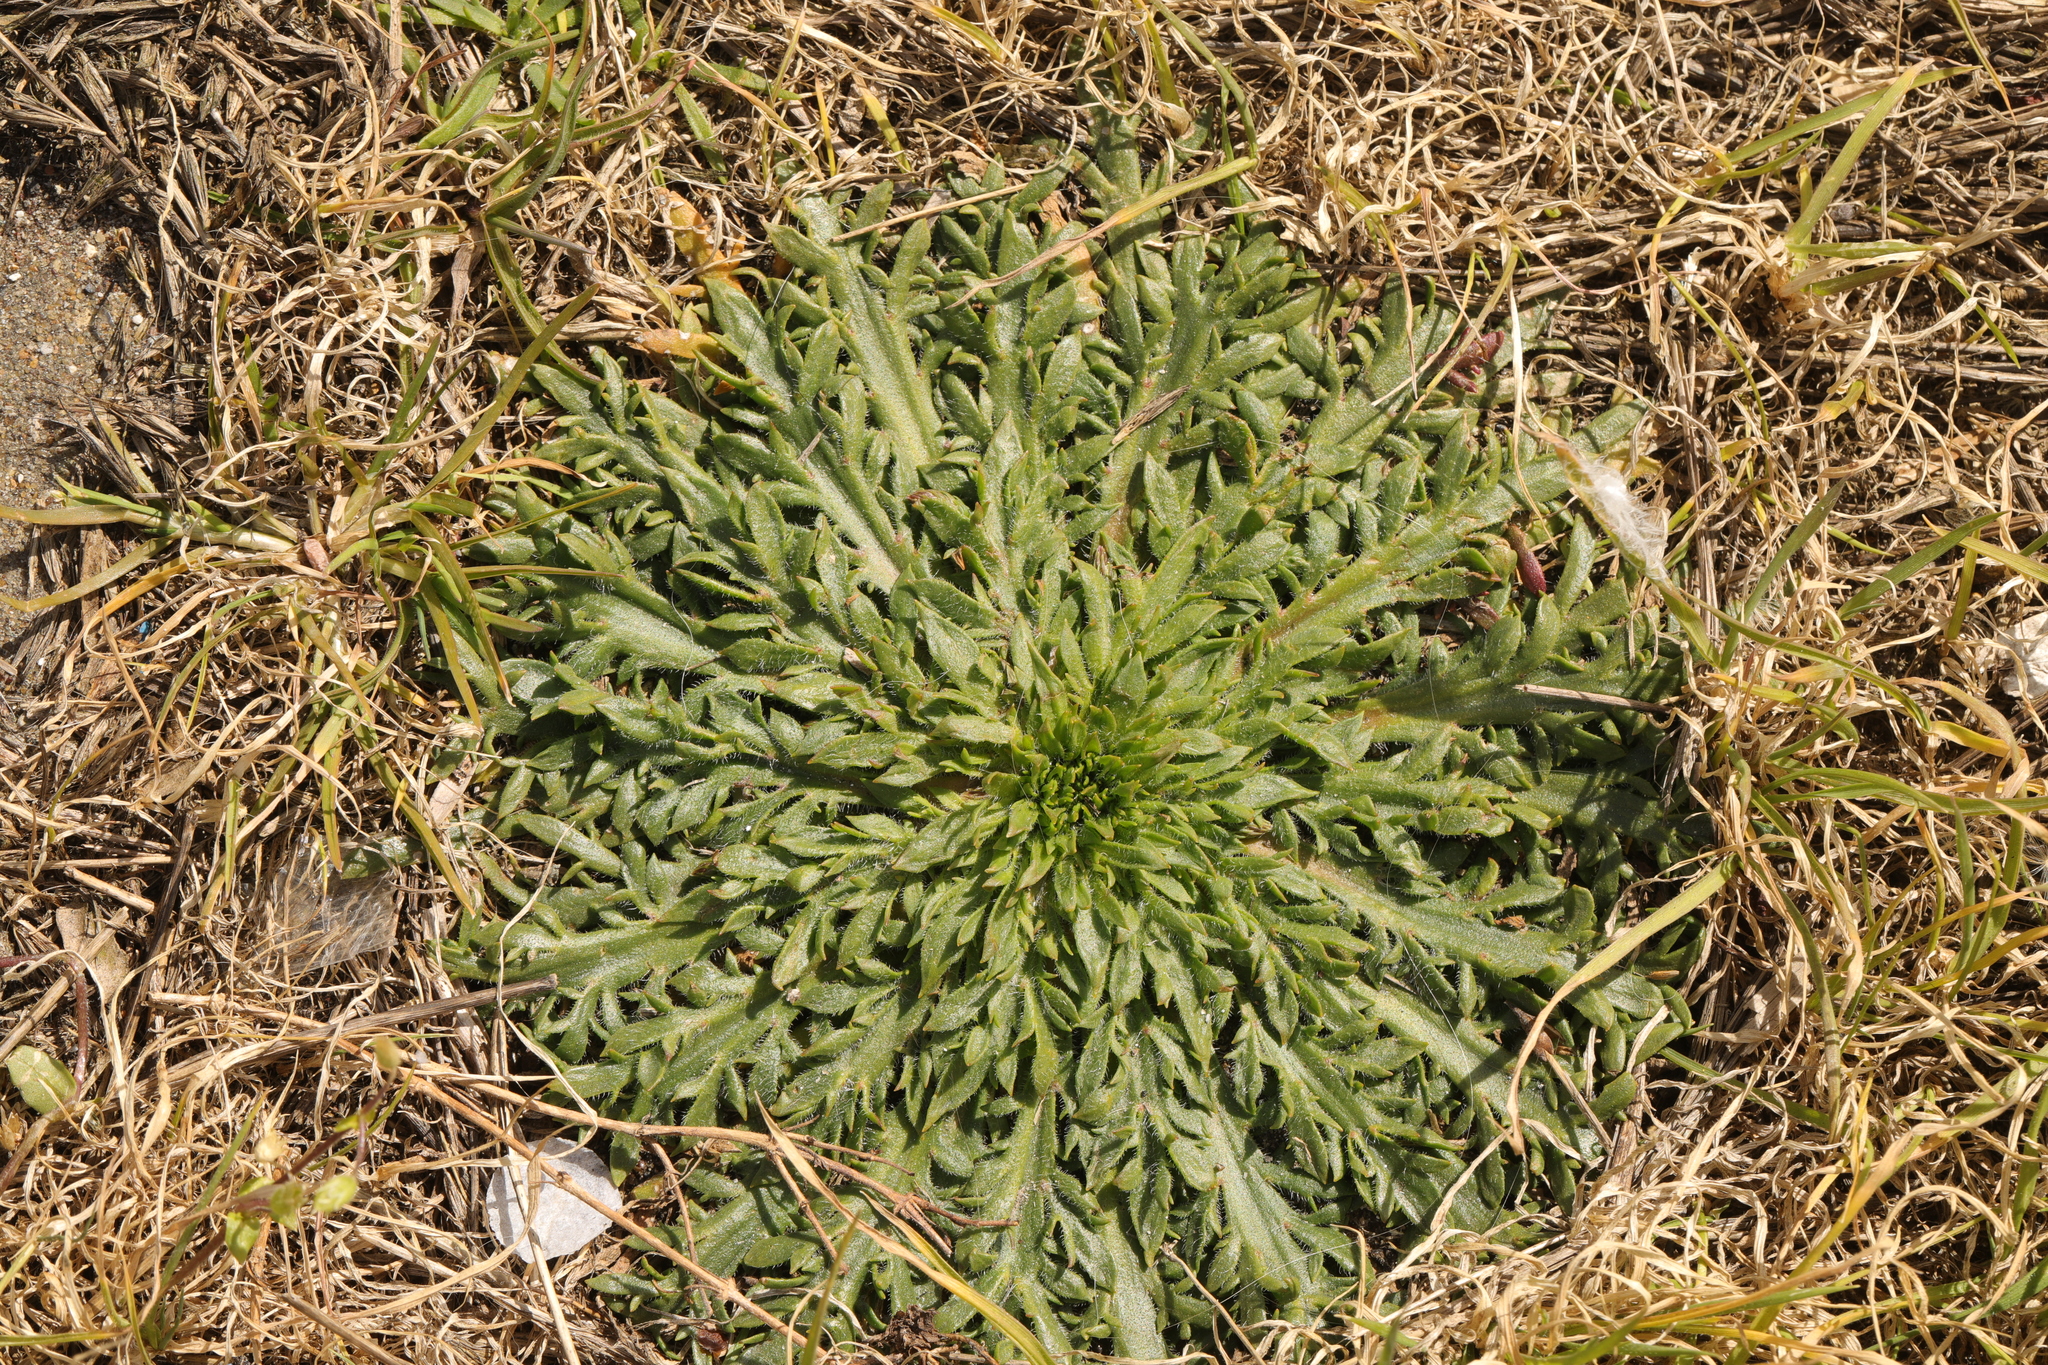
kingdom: Plantae
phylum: Tracheophyta
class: Magnoliopsida
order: Lamiales
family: Plantaginaceae
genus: Plantago
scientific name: Plantago coronopus
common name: Buck's-horn plantain
